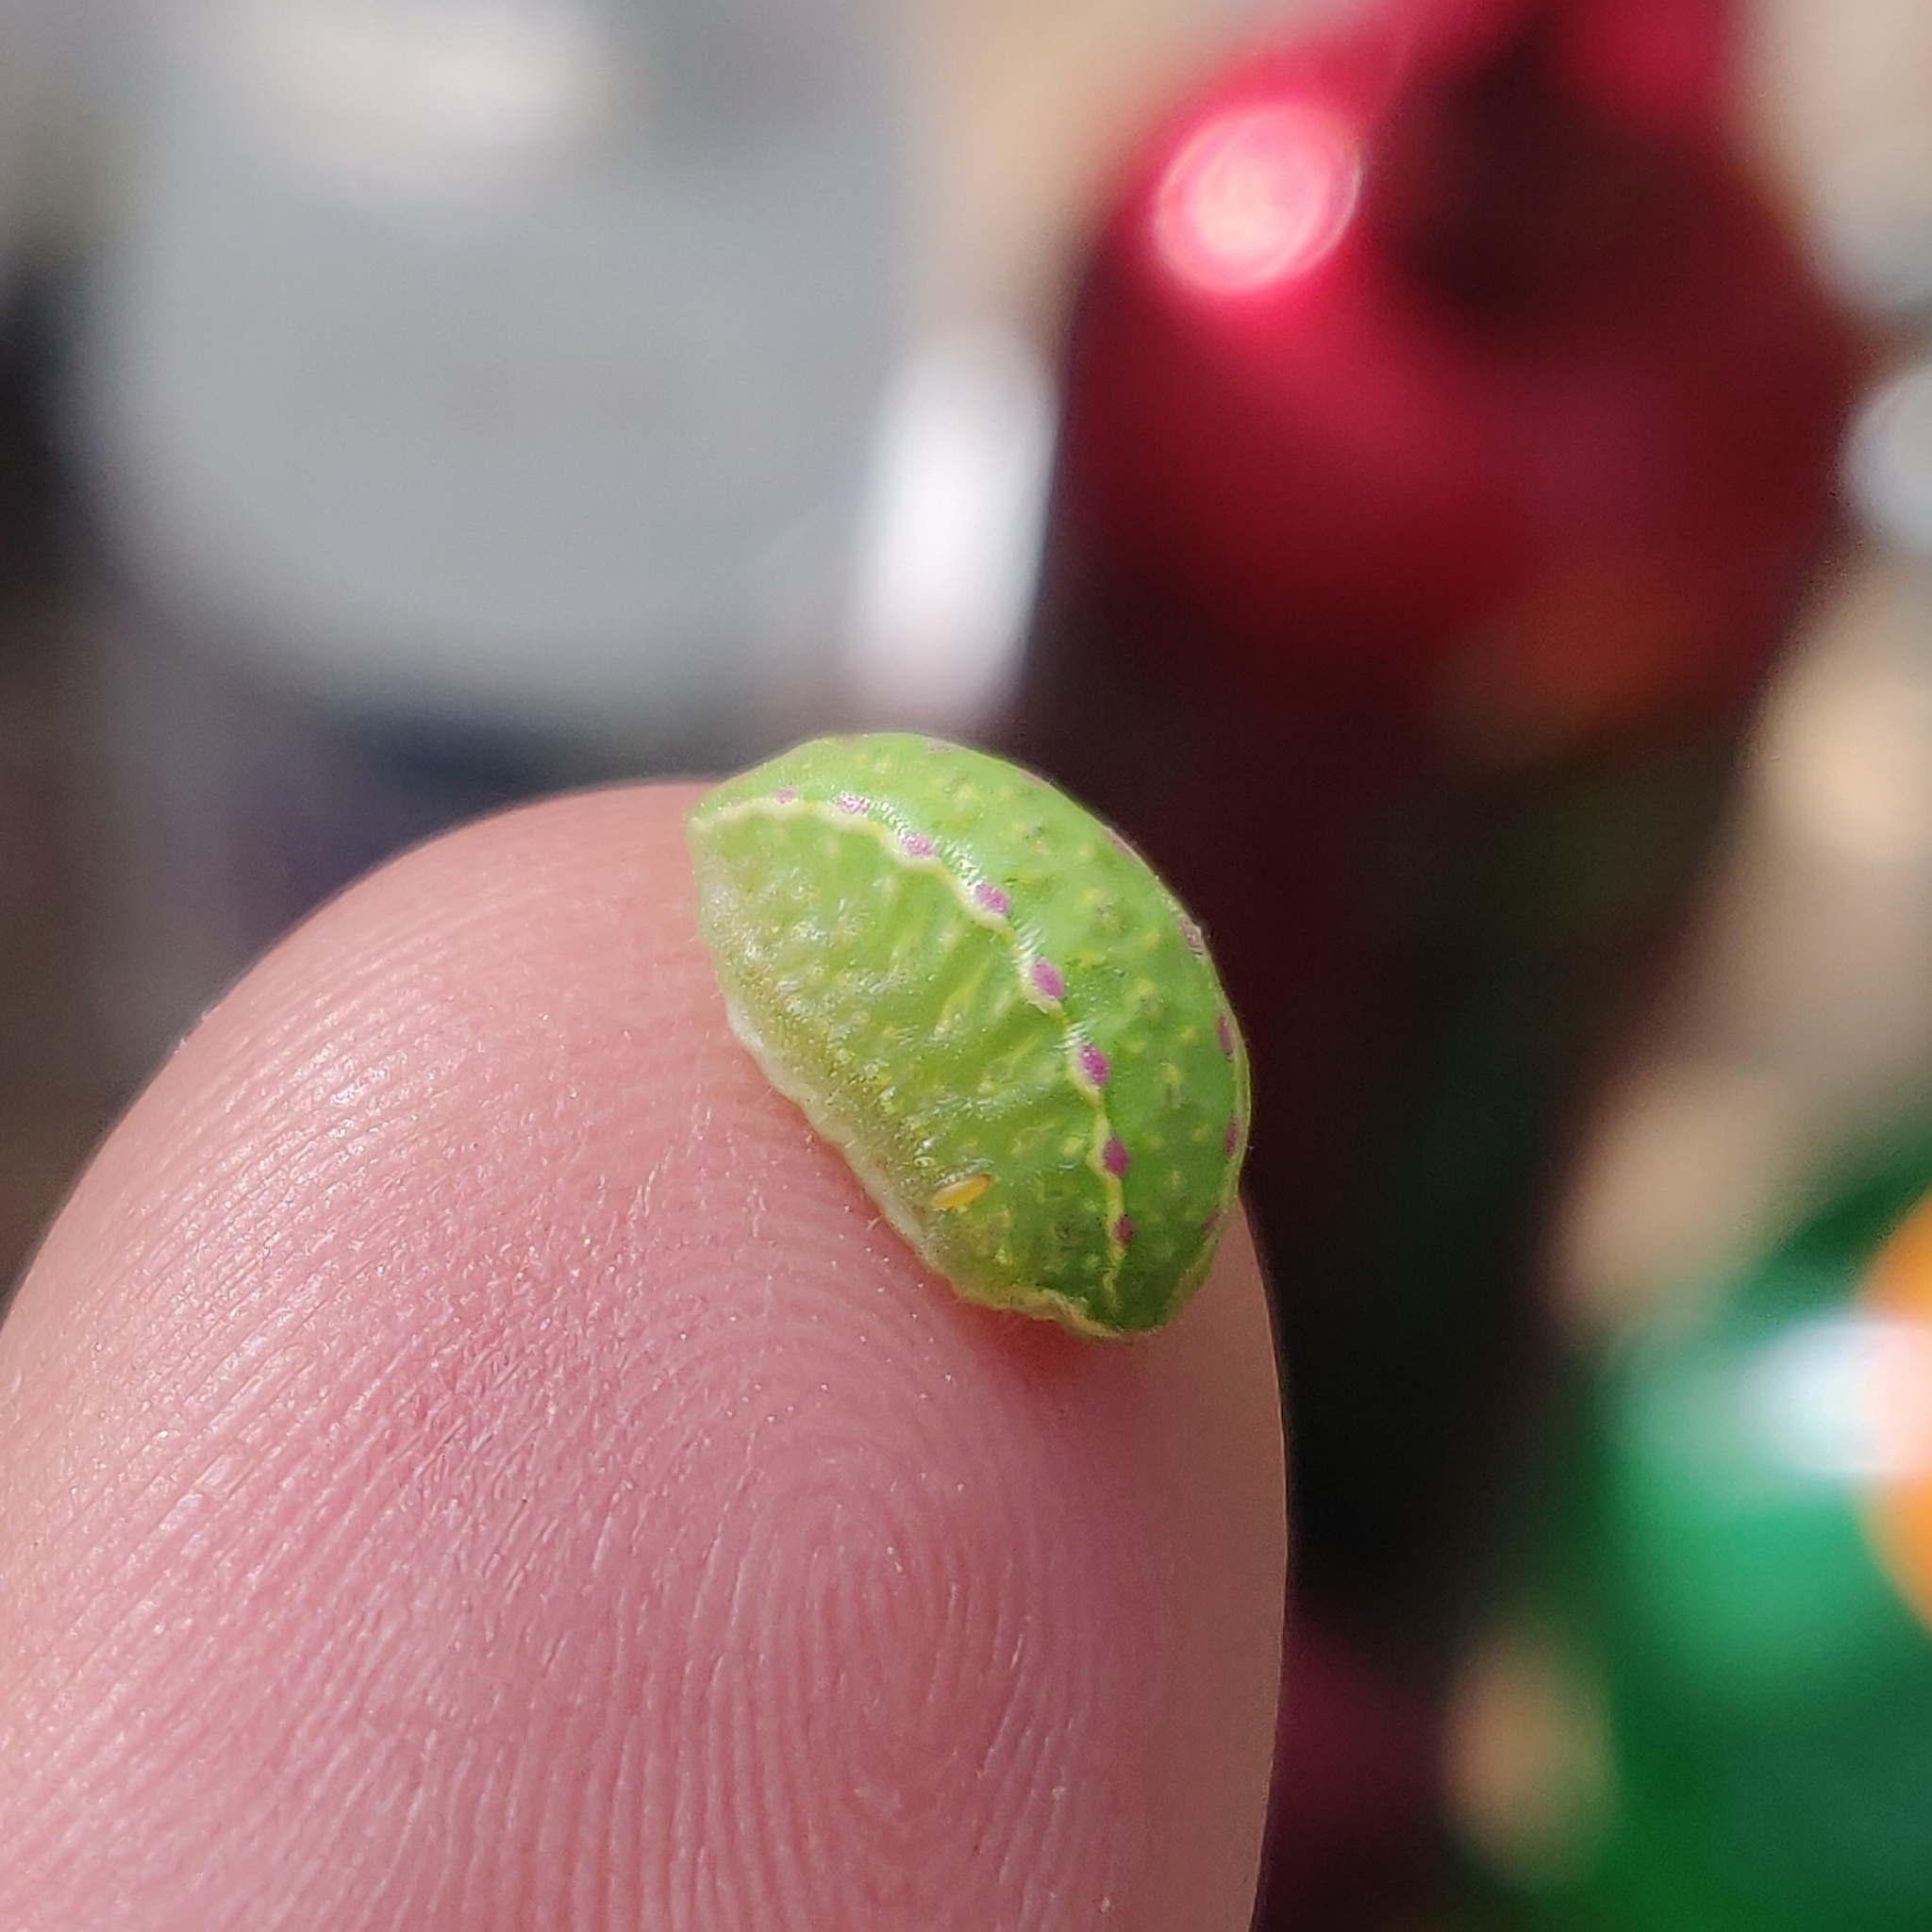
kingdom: Animalia
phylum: Arthropoda
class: Insecta
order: Lepidoptera
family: Limacodidae
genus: Apoda
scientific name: Apoda limacodes
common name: Festoon
